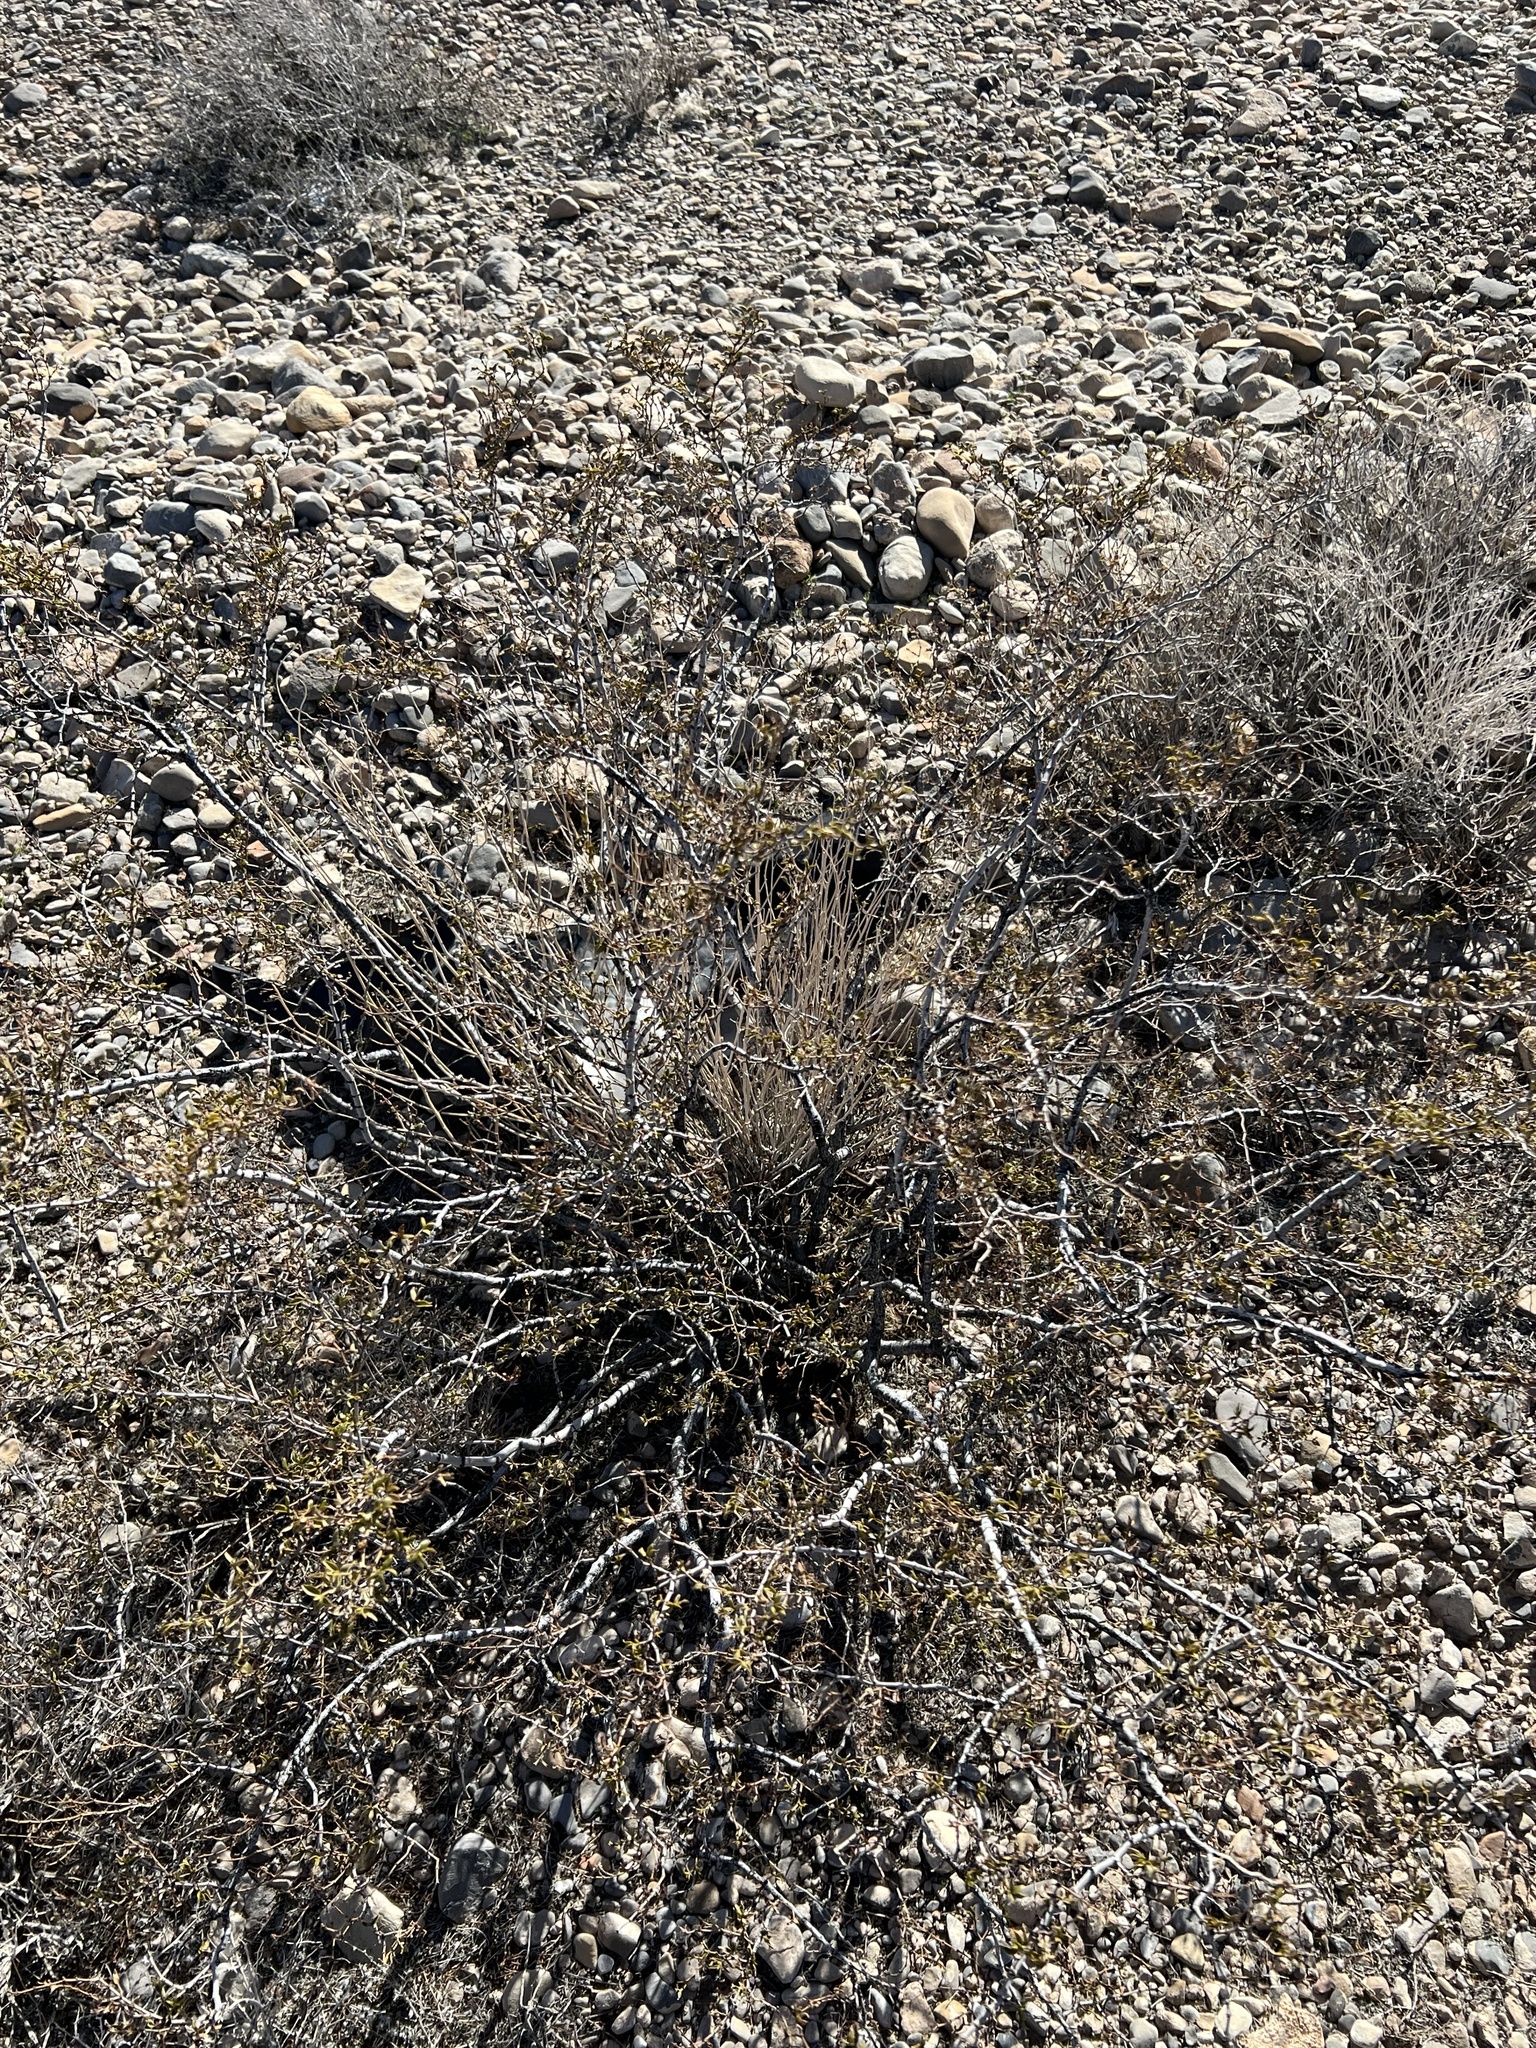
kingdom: Plantae
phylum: Tracheophyta
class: Magnoliopsida
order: Zygophyllales
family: Zygophyllaceae
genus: Larrea
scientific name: Larrea tridentata
